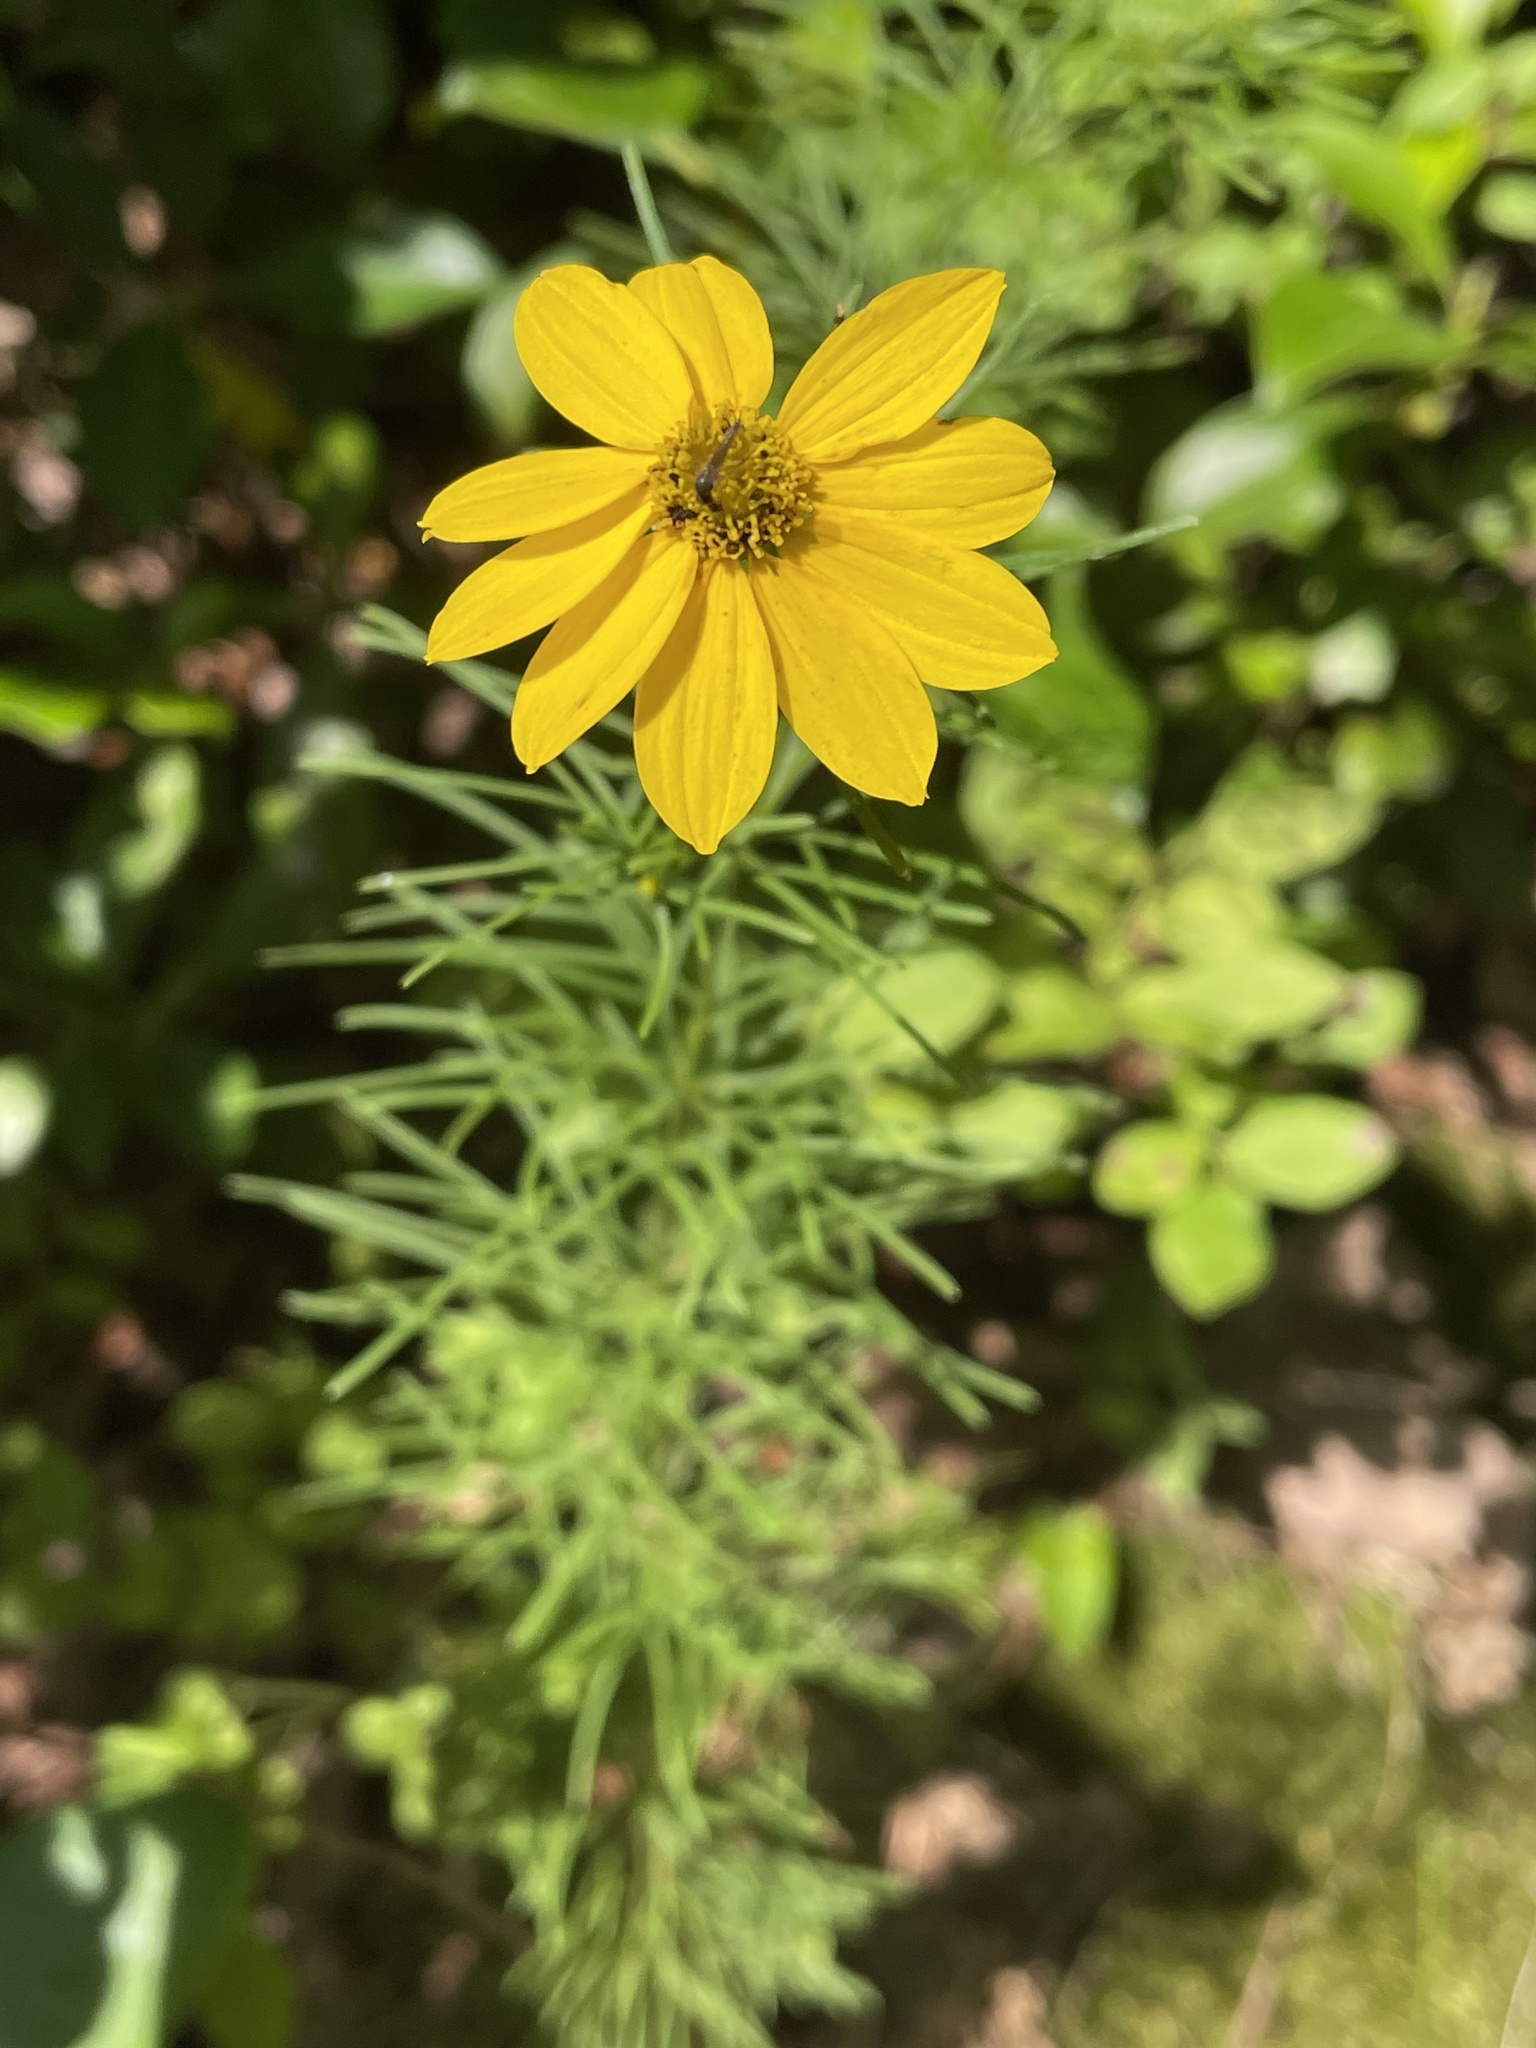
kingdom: Plantae
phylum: Tracheophyta
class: Magnoliopsida
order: Asterales
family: Asteraceae
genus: Coreopsis
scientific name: Coreopsis verticillata
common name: Whorled tickseed
